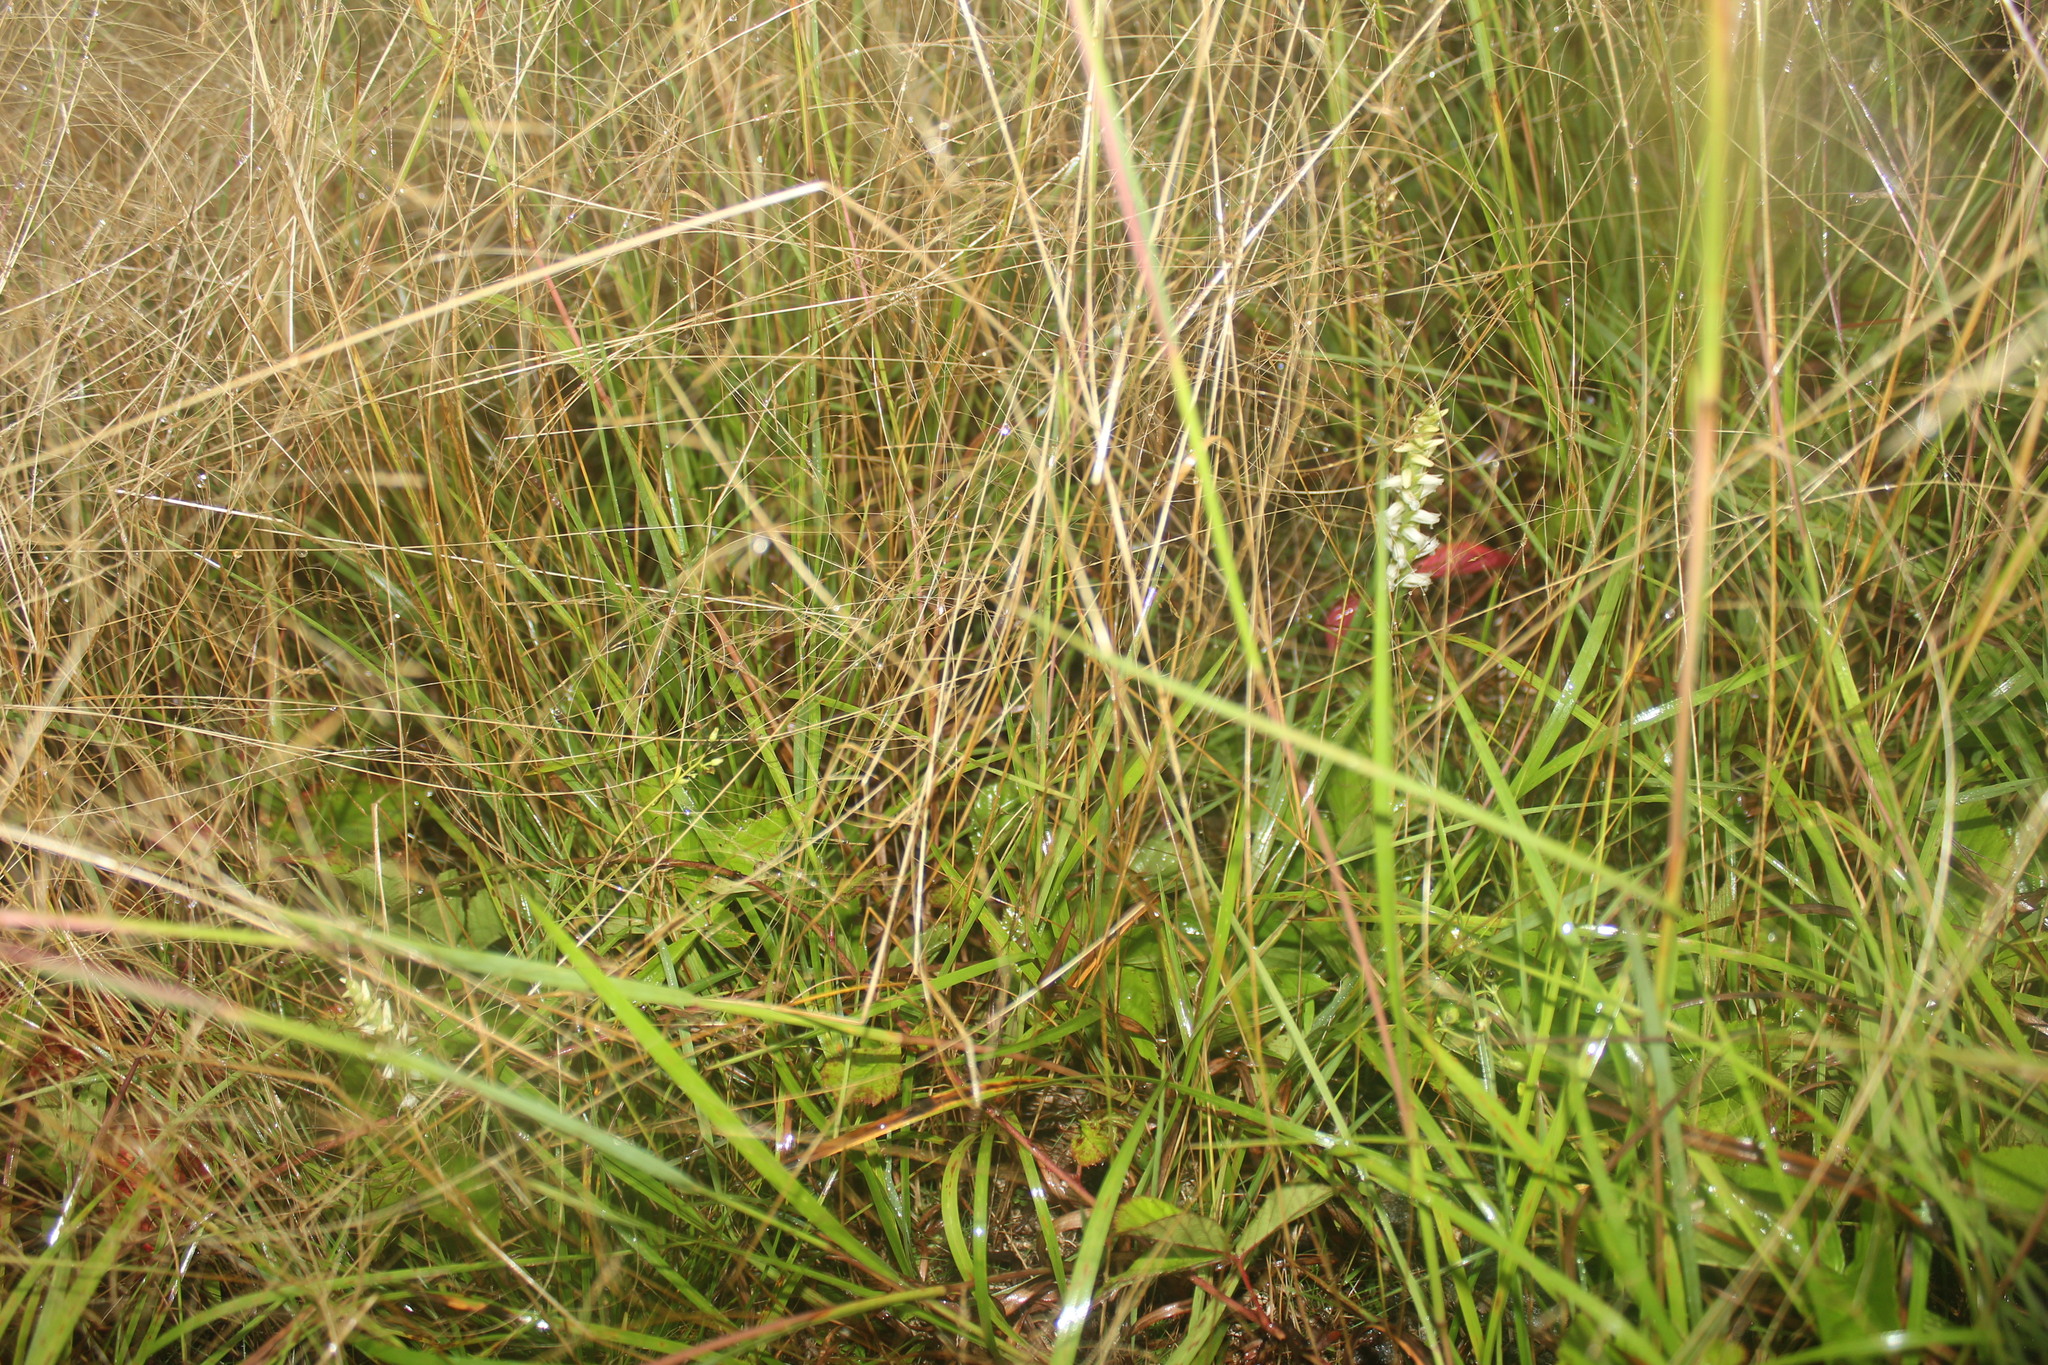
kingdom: Plantae
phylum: Tracheophyta
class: Liliopsida
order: Asparagales
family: Orchidaceae
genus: Spiranthes
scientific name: Spiranthes ochroleuca
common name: Yellow ladies'-tresses
